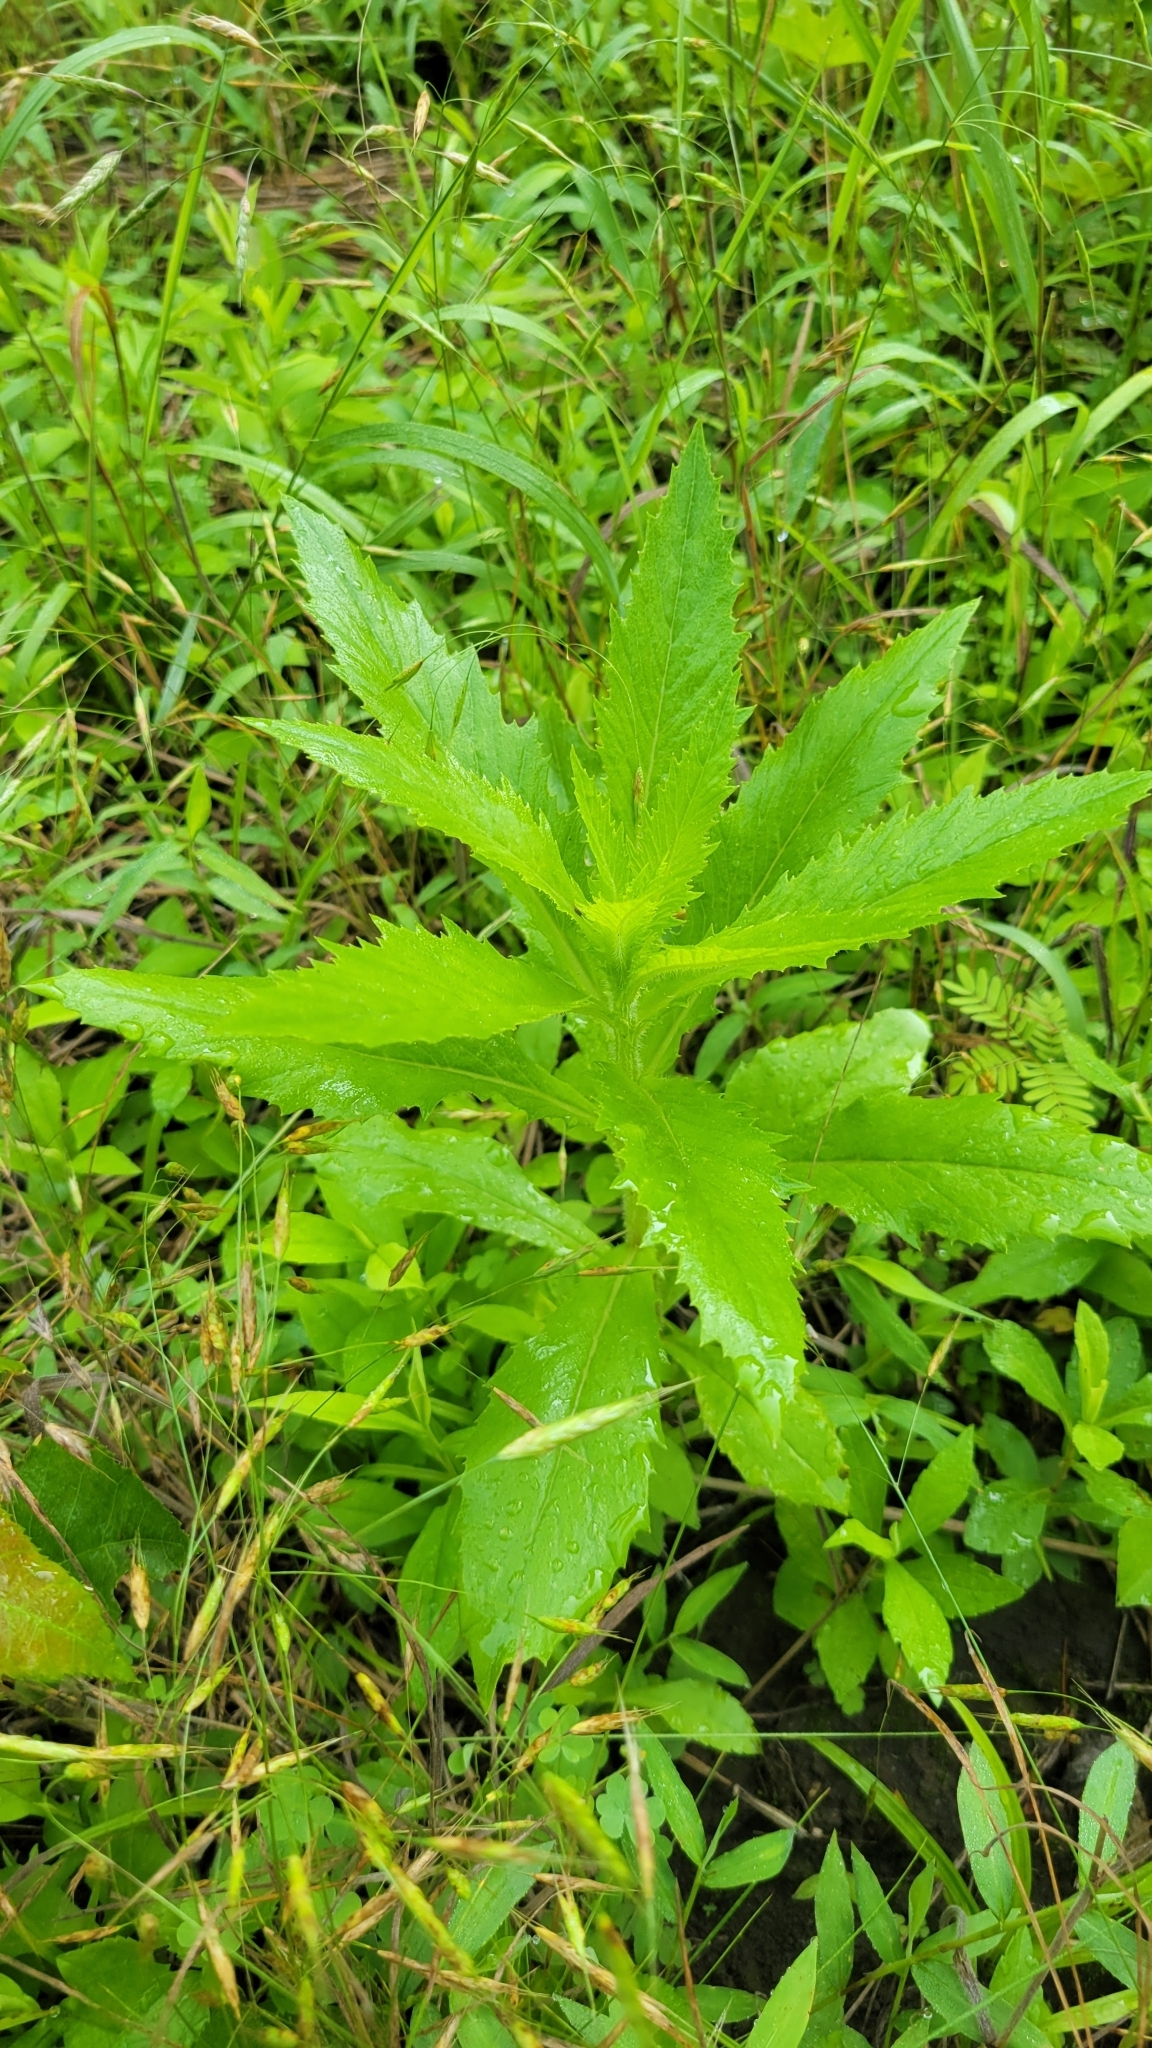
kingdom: Plantae
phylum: Tracheophyta
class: Magnoliopsida
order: Asterales
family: Asteraceae
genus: Erechtites
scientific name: Erechtites hieraciifolius
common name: American burnweed
